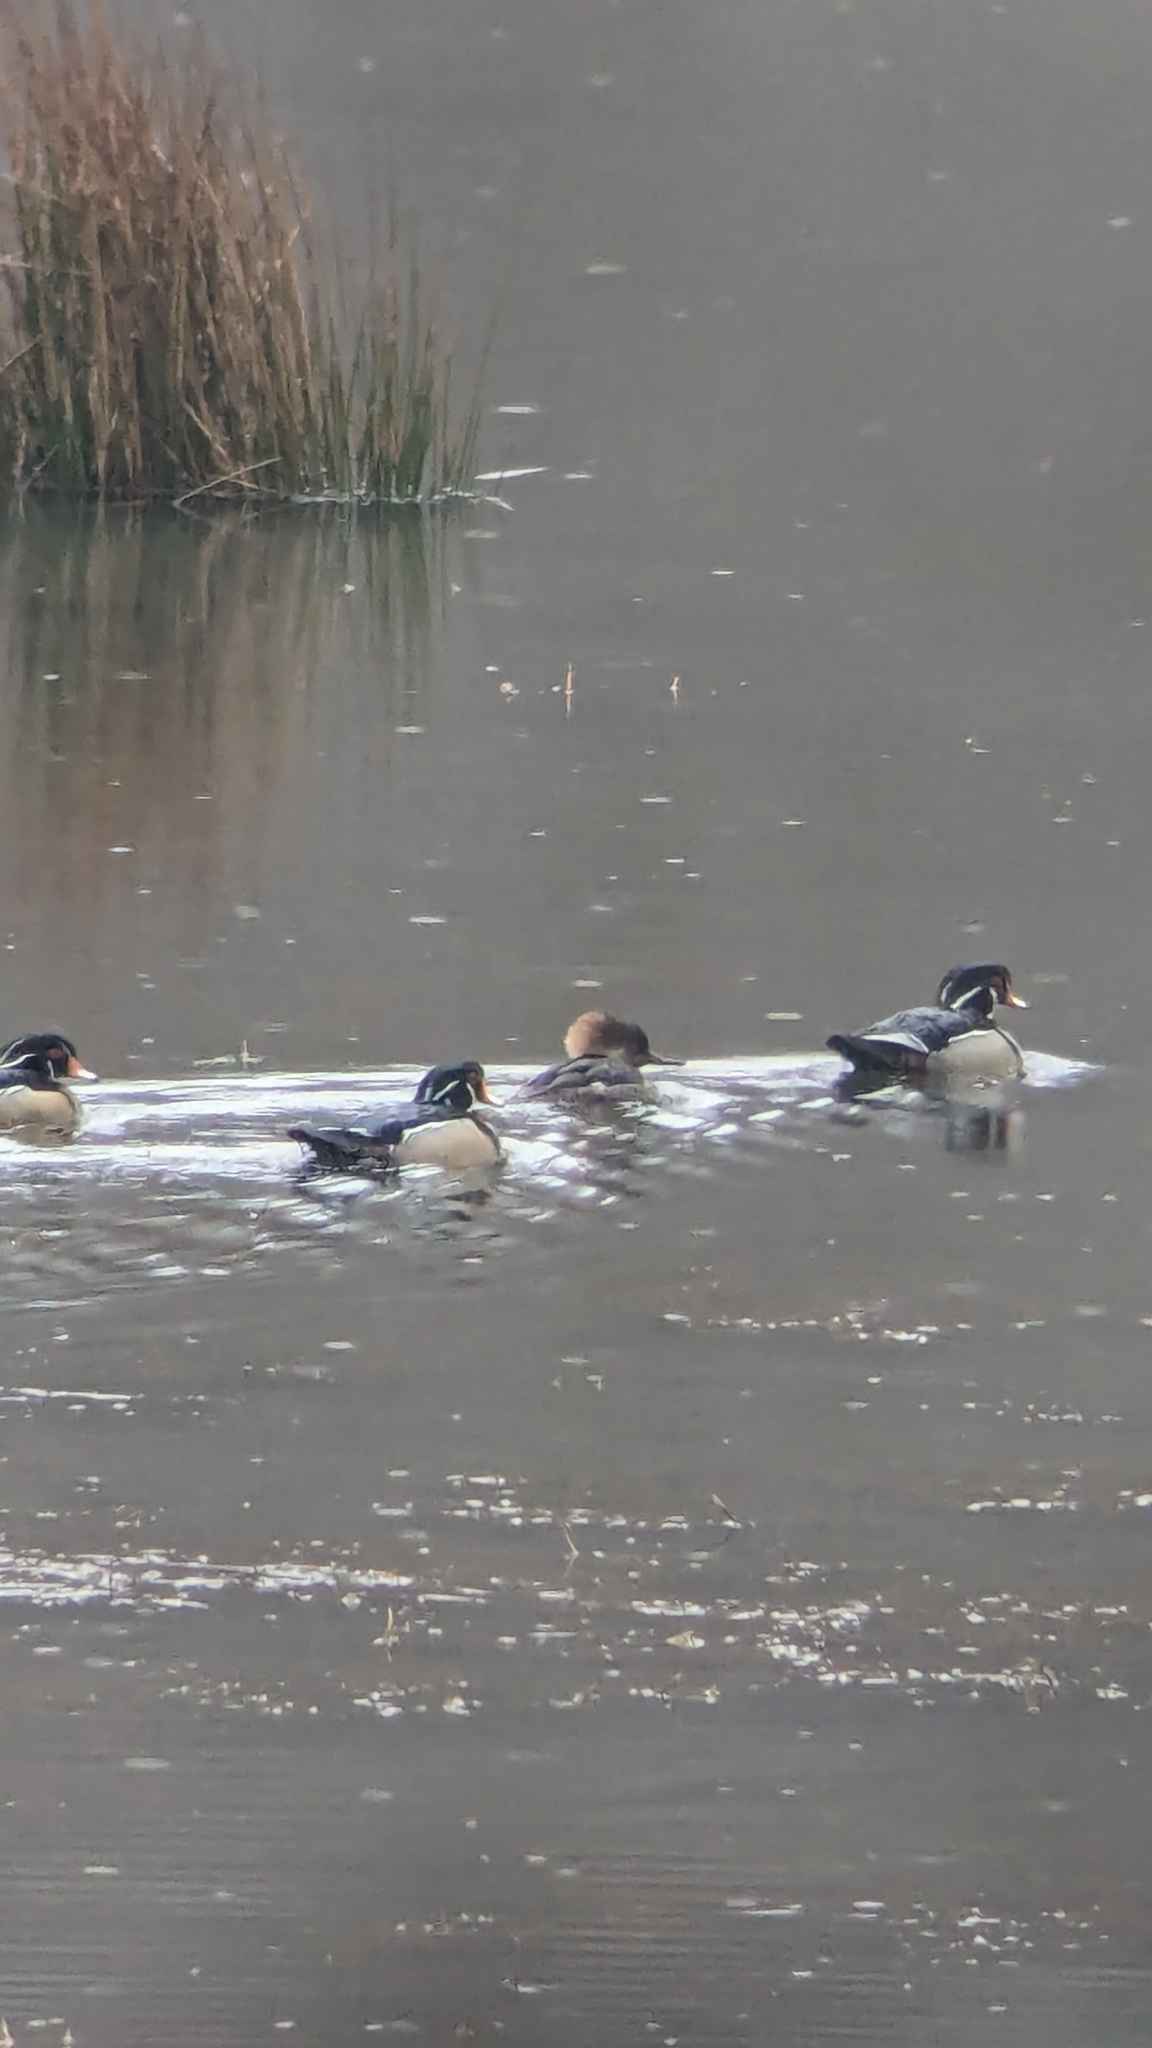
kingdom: Animalia
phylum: Chordata
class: Aves
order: Anseriformes
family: Anatidae
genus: Lophodytes
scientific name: Lophodytes cucullatus
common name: Hooded merganser
